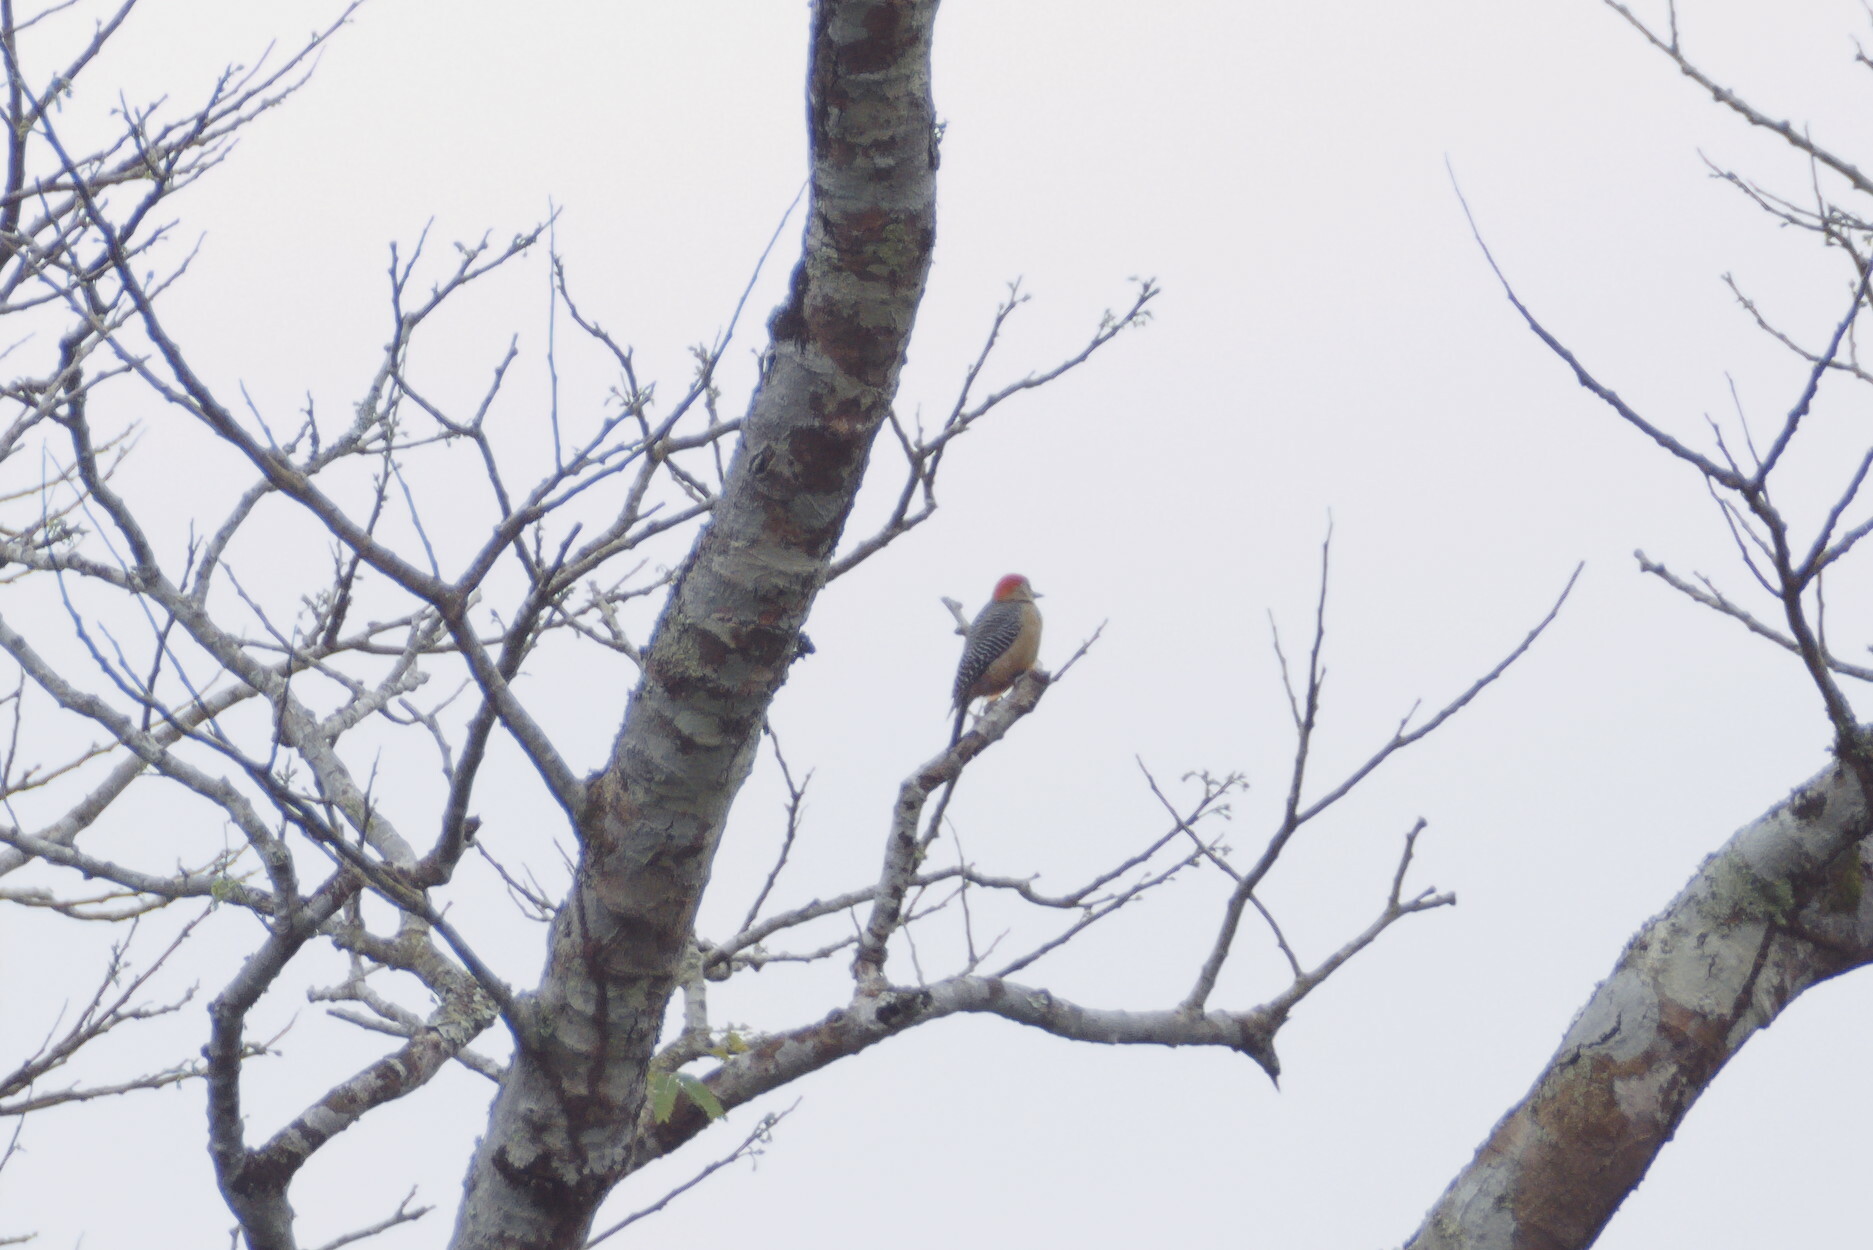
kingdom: Animalia
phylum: Chordata
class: Aves
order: Piciformes
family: Picidae
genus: Melanerpes
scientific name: Melanerpes aurifrons
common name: Golden-fronted woodpecker
